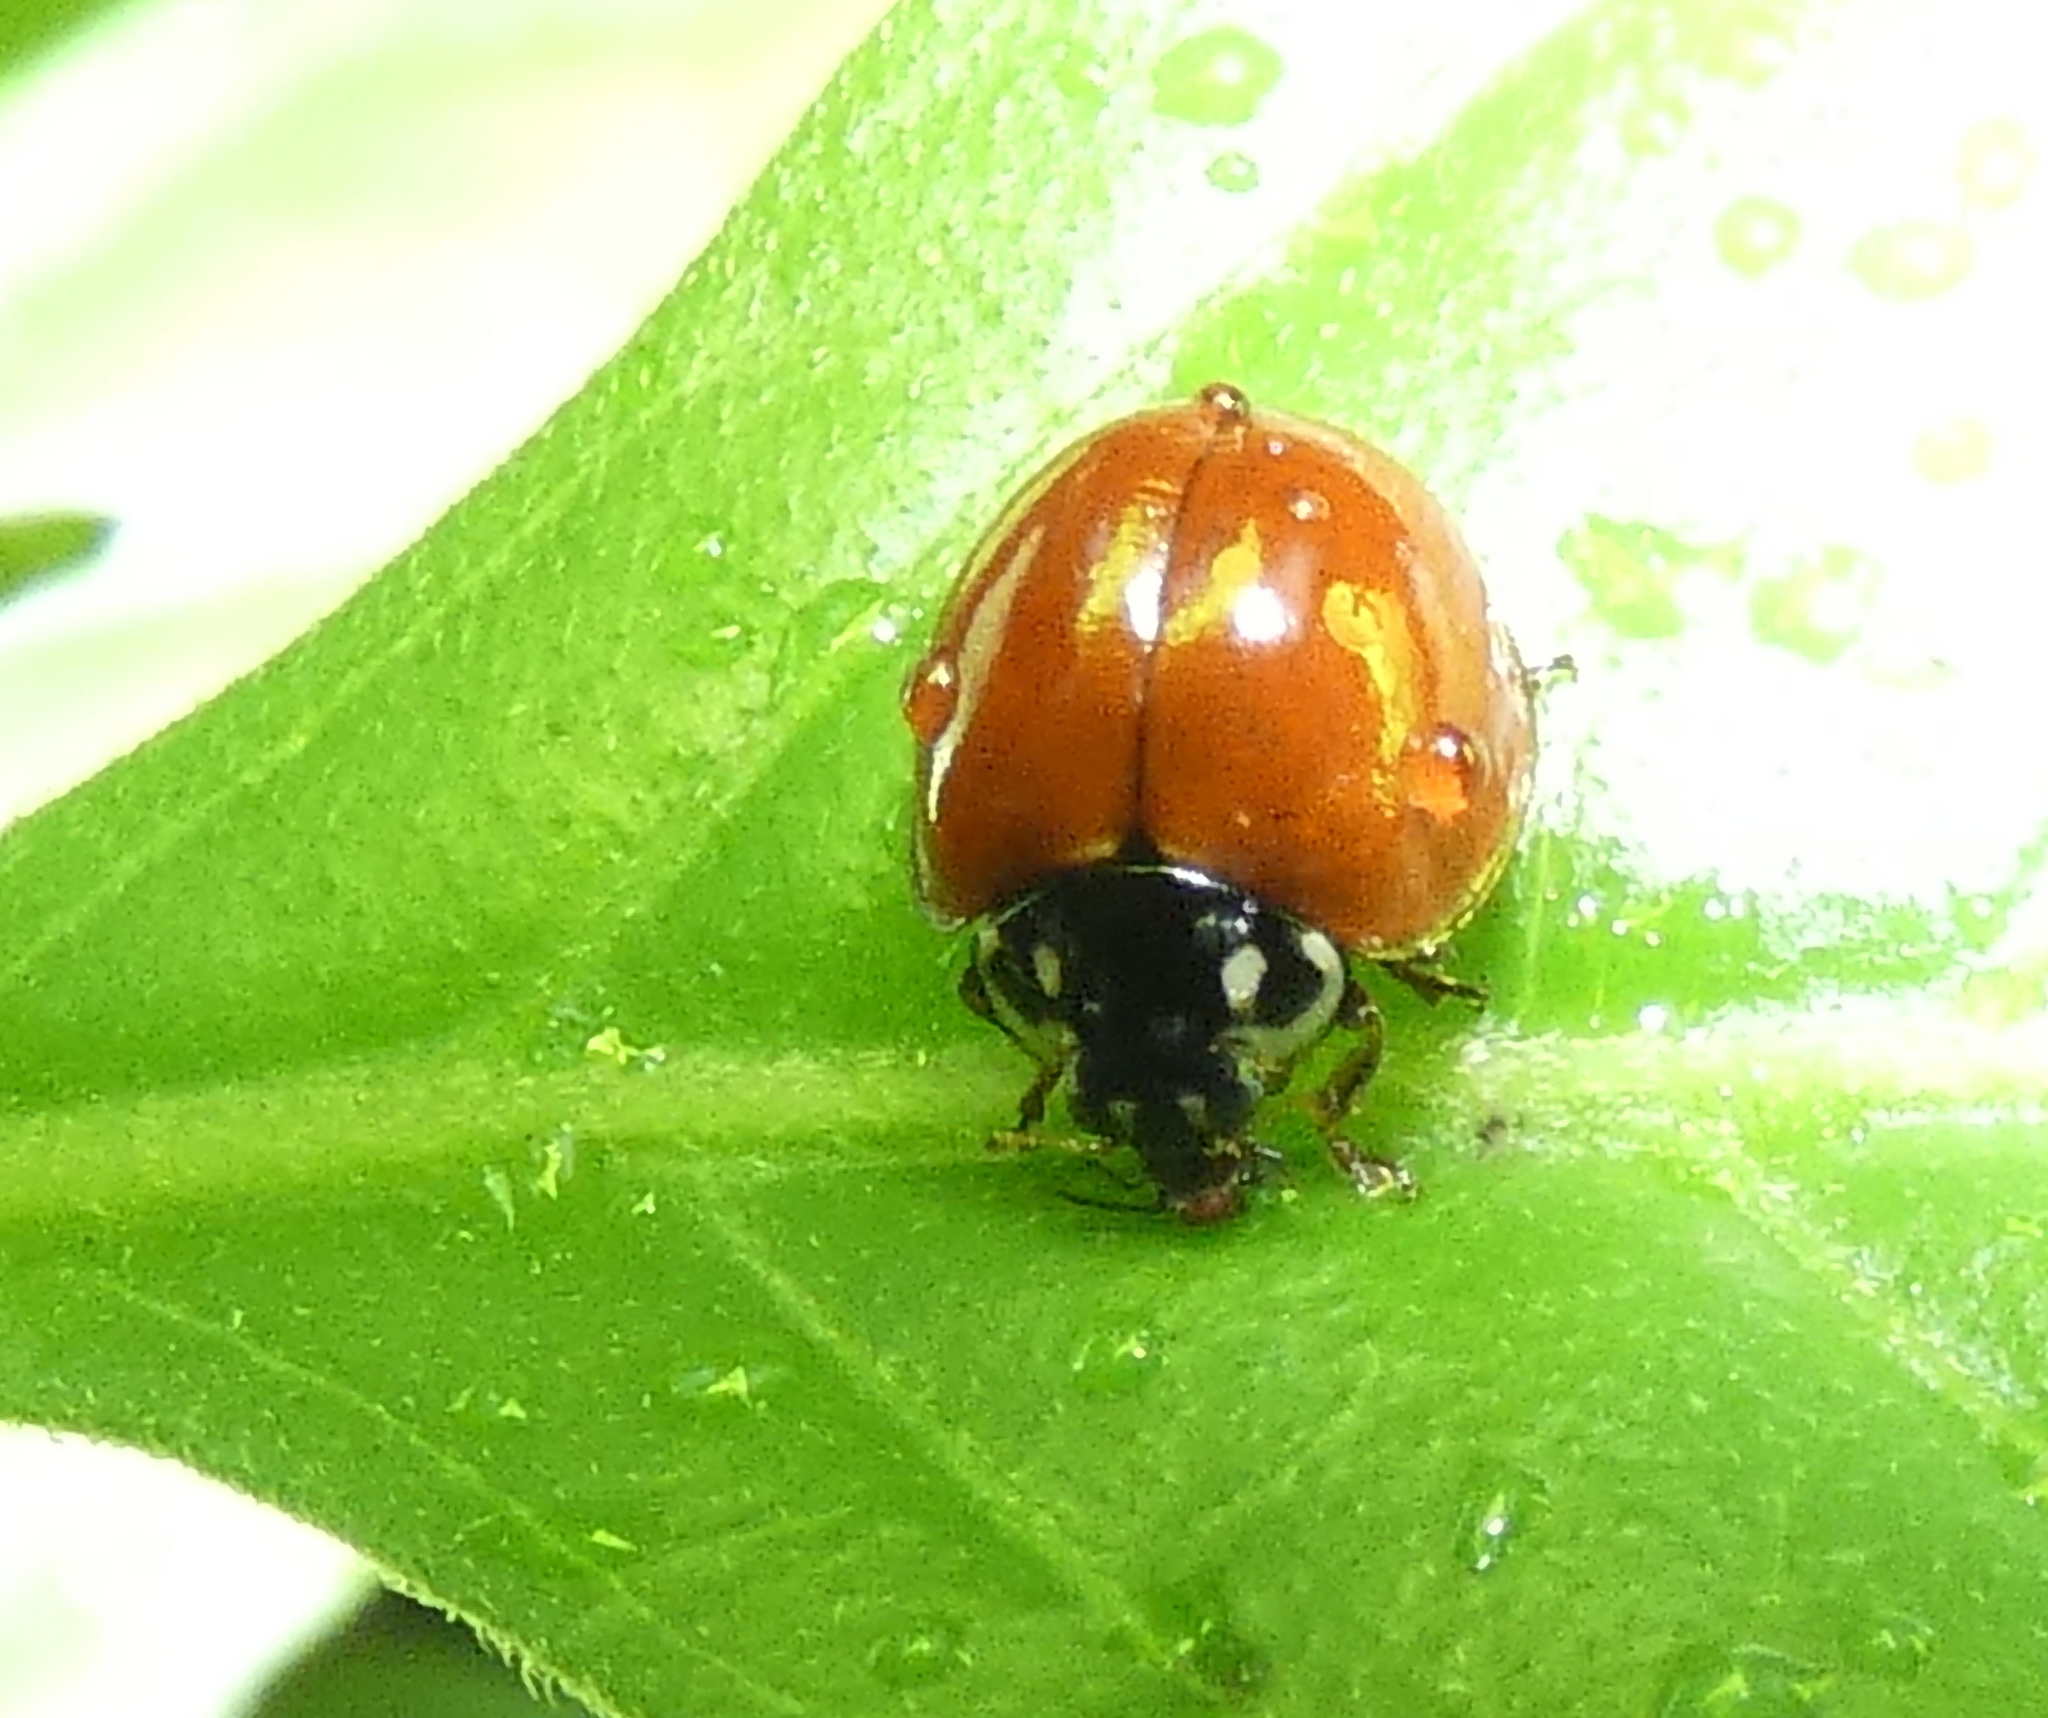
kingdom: Animalia
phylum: Arthropoda
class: Insecta
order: Coleoptera
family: Coccinellidae
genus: Cycloneda
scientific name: Cycloneda sanguinea
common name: Ladybird beetle
